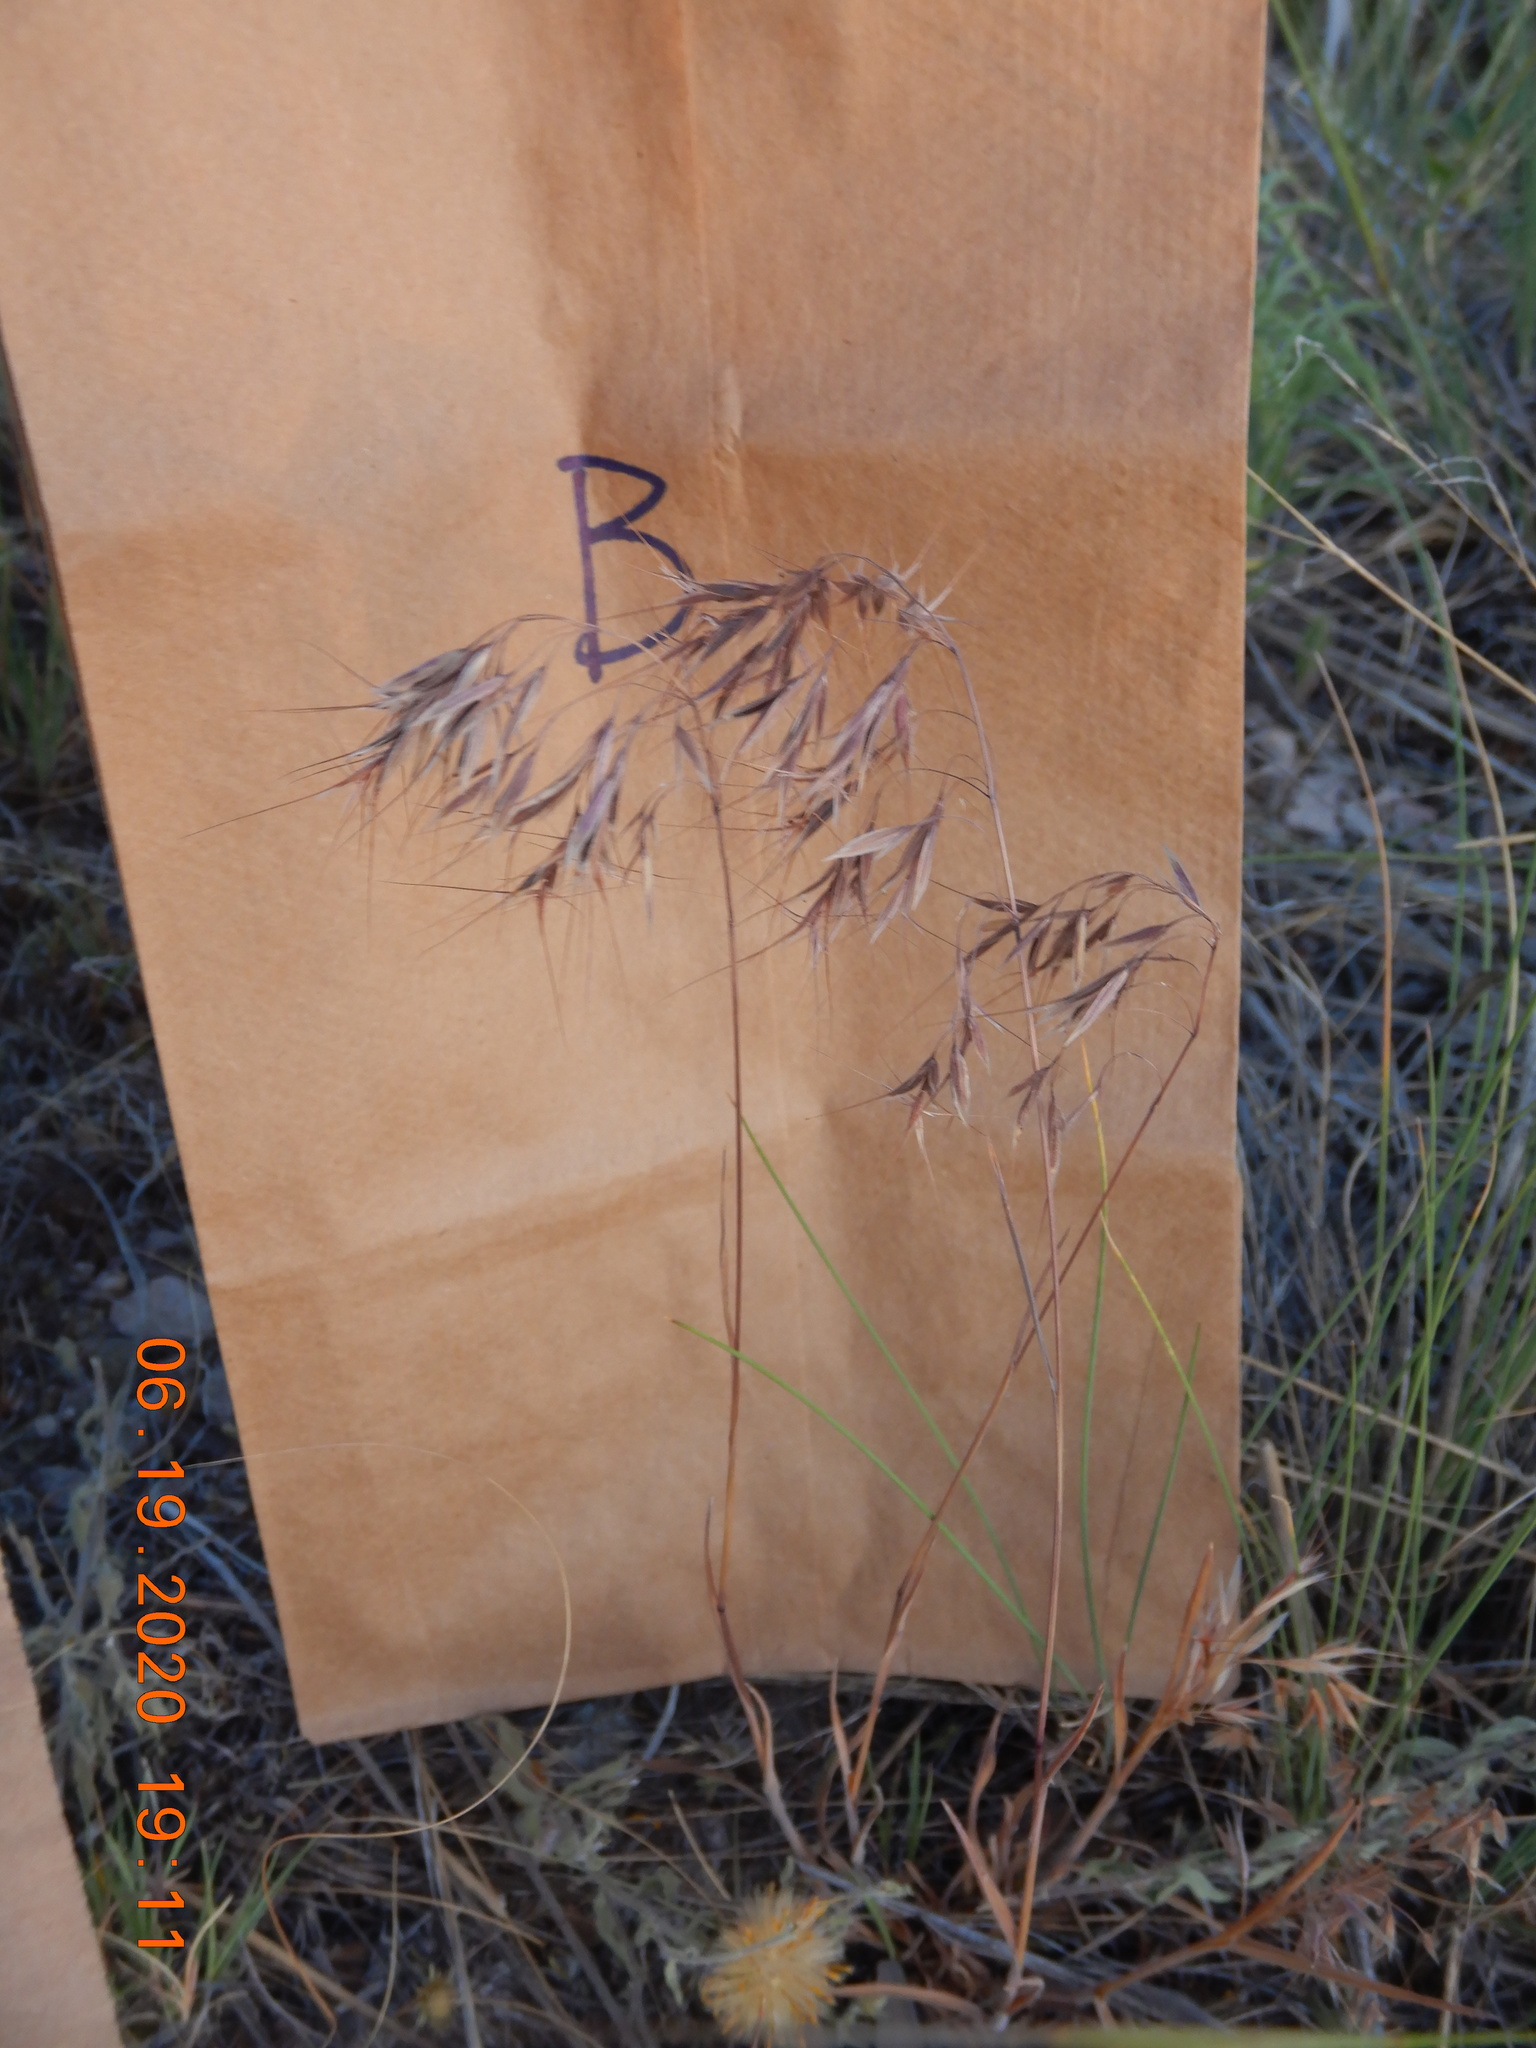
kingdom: Plantae
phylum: Tracheophyta
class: Liliopsida
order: Poales
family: Poaceae
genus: Bromus
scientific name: Bromus tectorum
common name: Cheatgrass
